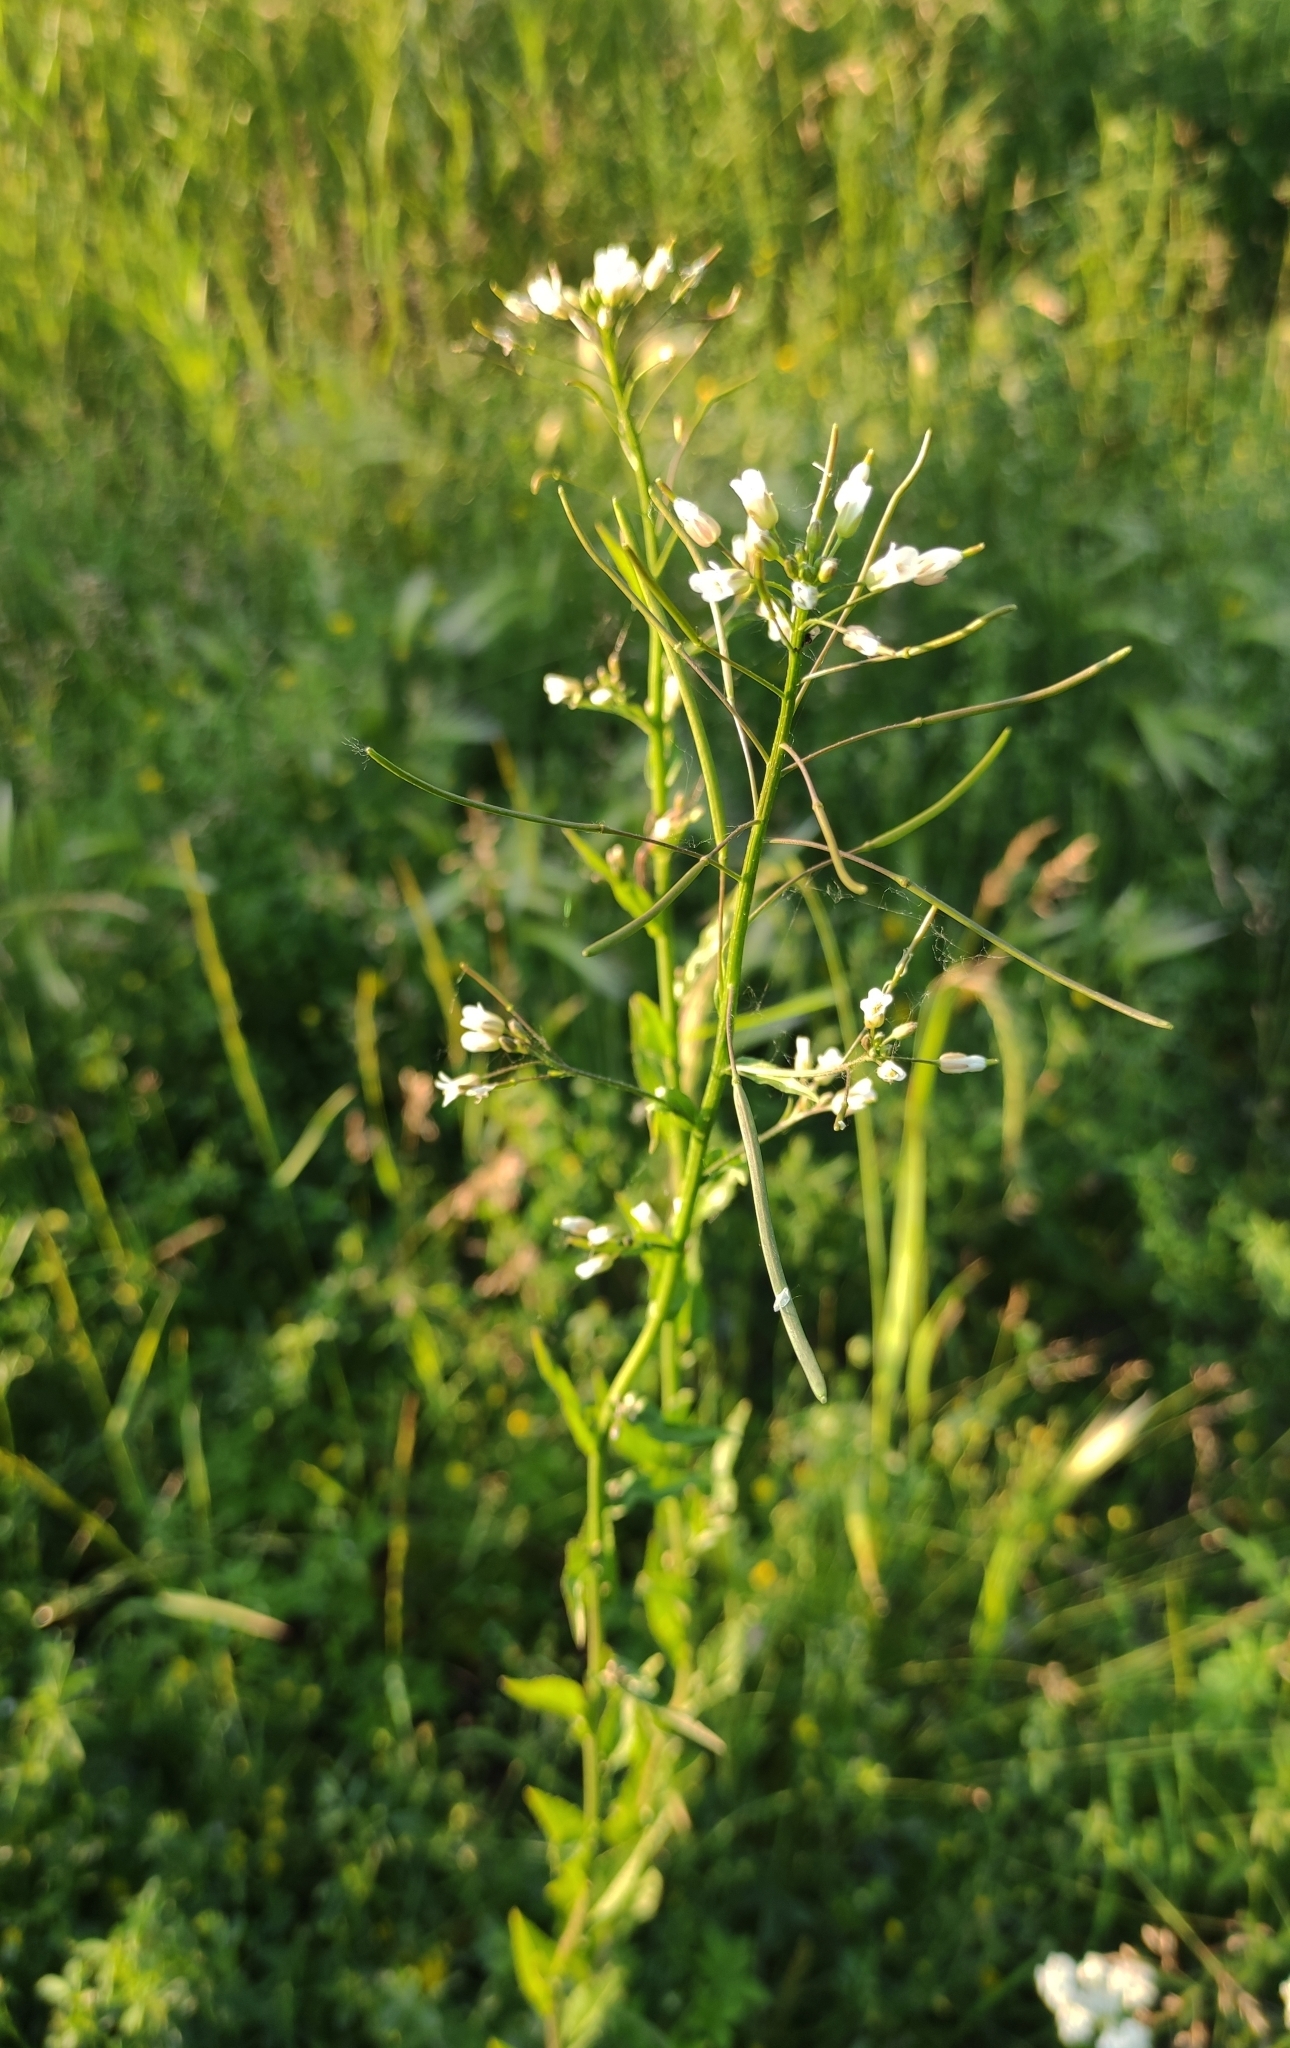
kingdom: Plantae
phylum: Tracheophyta
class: Magnoliopsida
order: Brassicales
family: Brassicaceae
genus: Catolobus
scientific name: Catolobus pendulus
